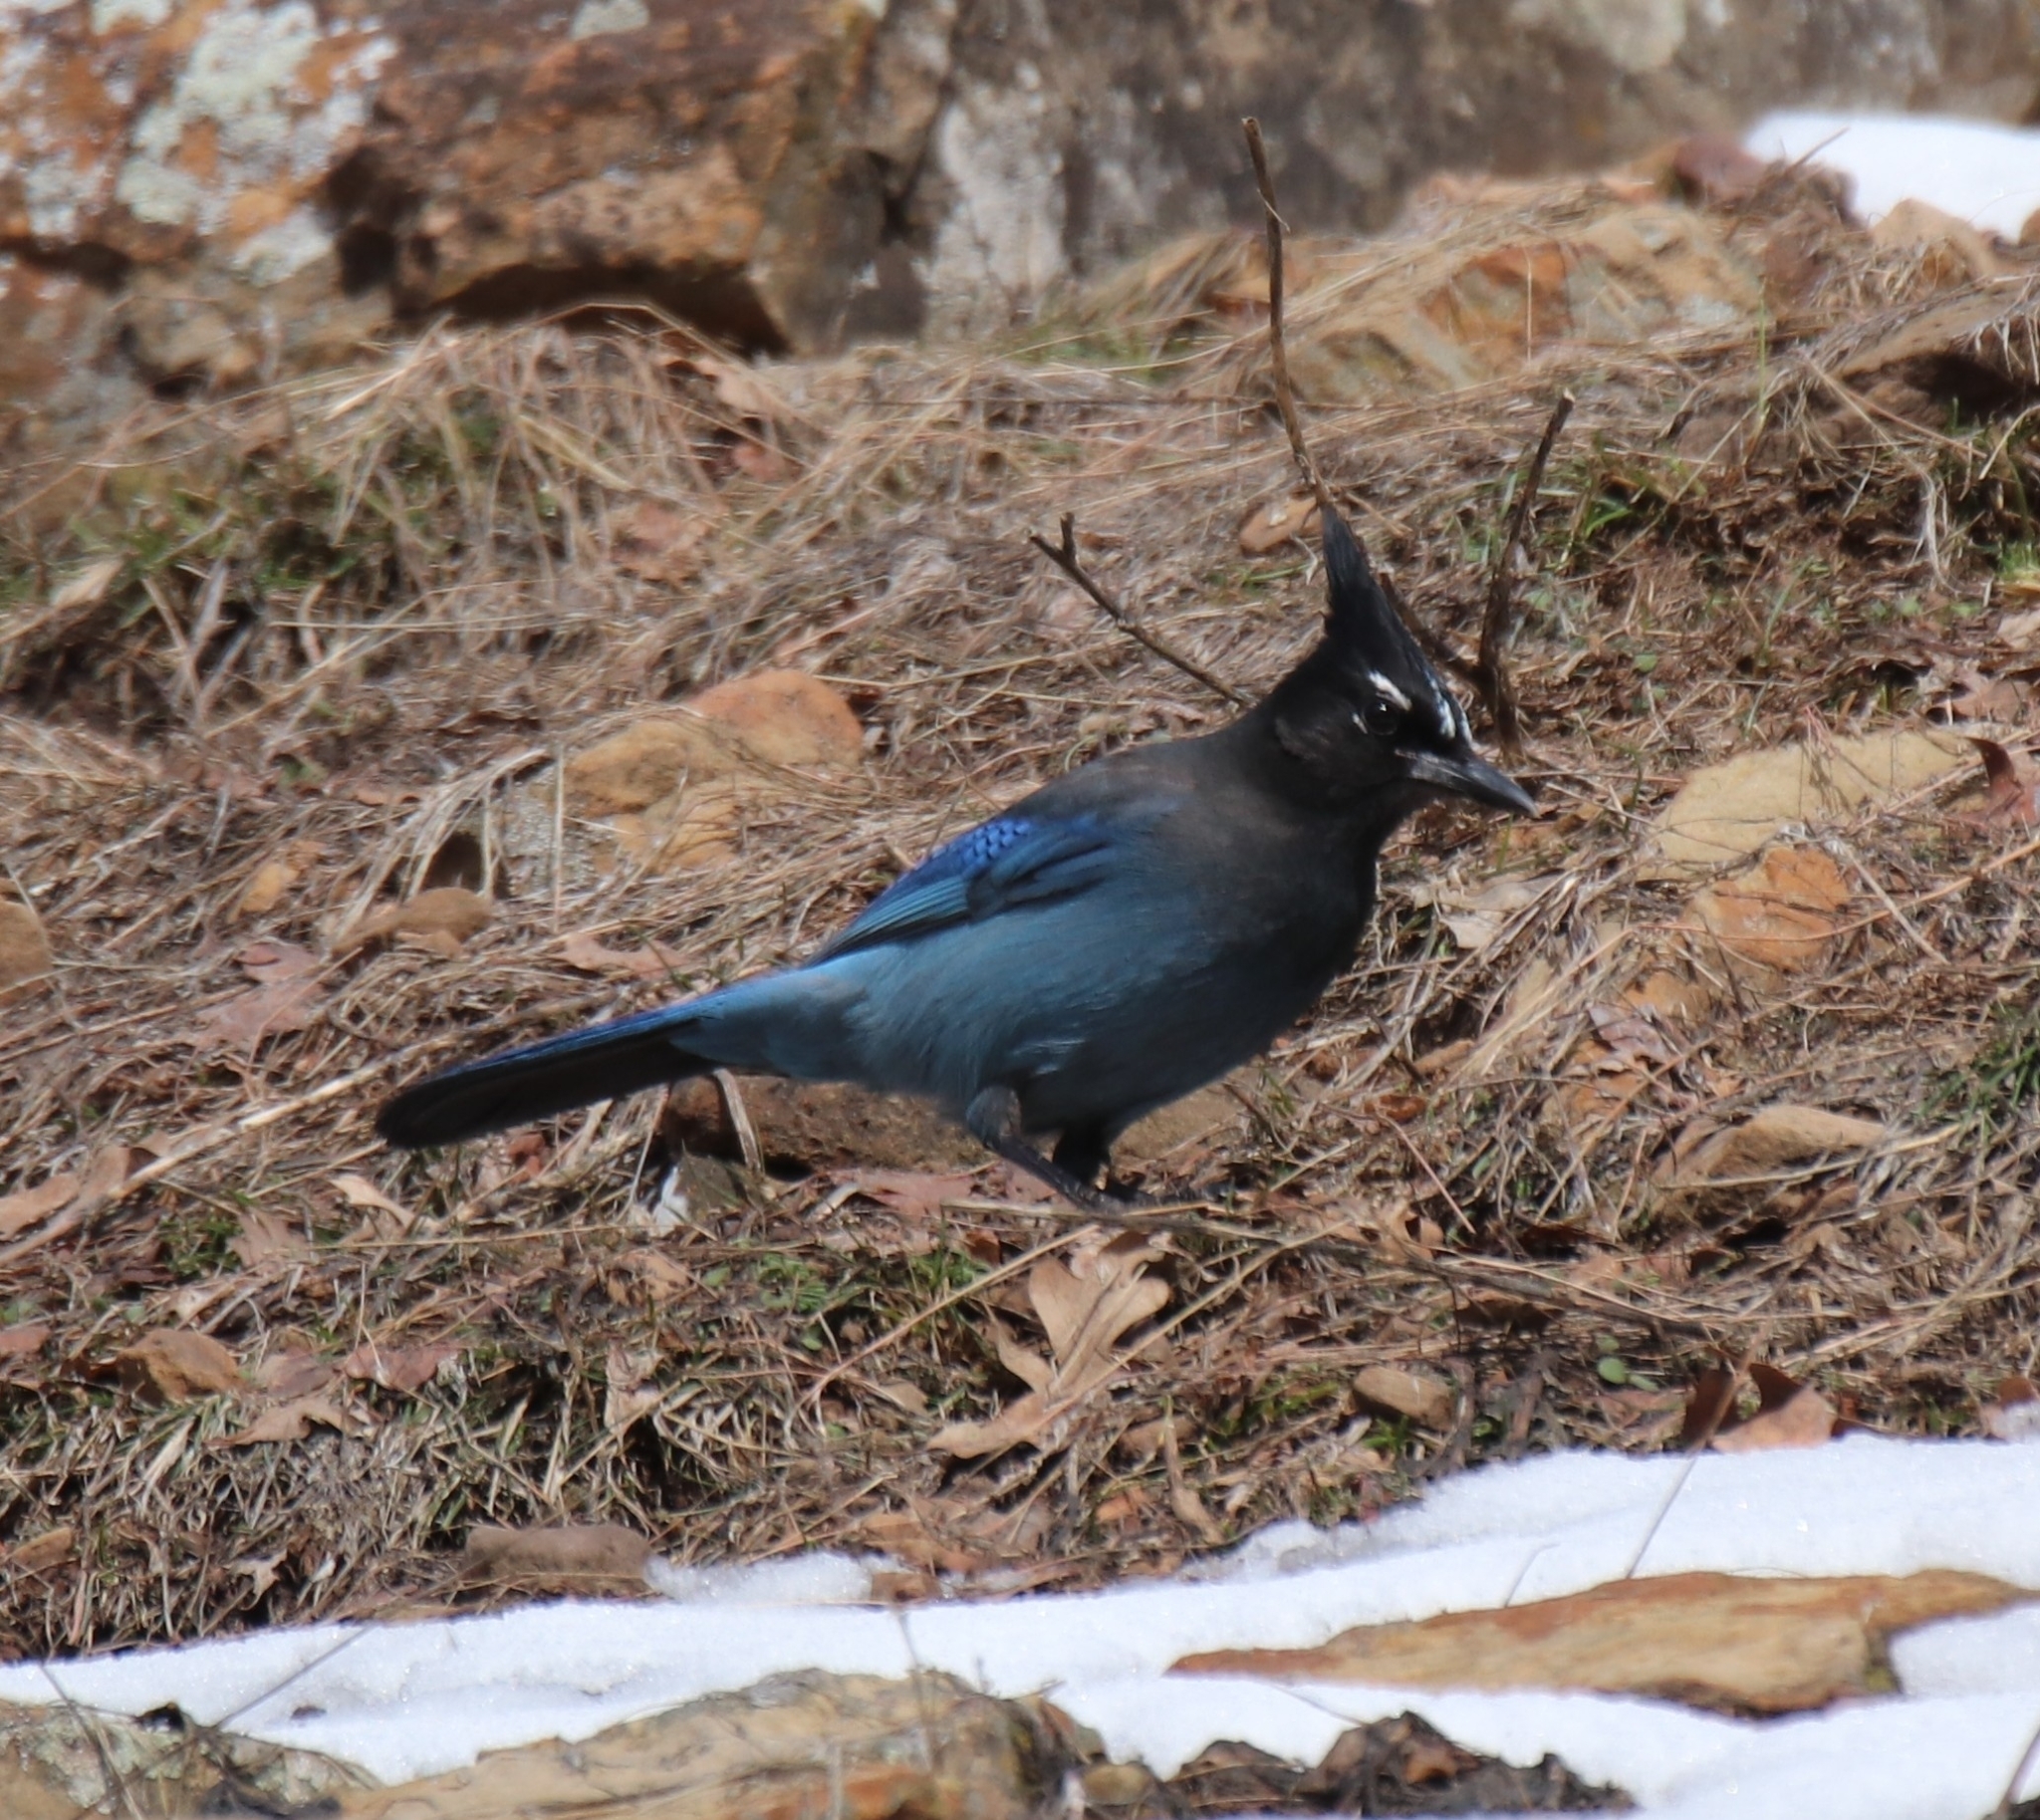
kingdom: Animalia
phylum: Chordata
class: Aves
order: Passeriformes
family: Corvidae
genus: Cyanocitta
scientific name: Cyanocitta stelleri
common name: Steller's jay
